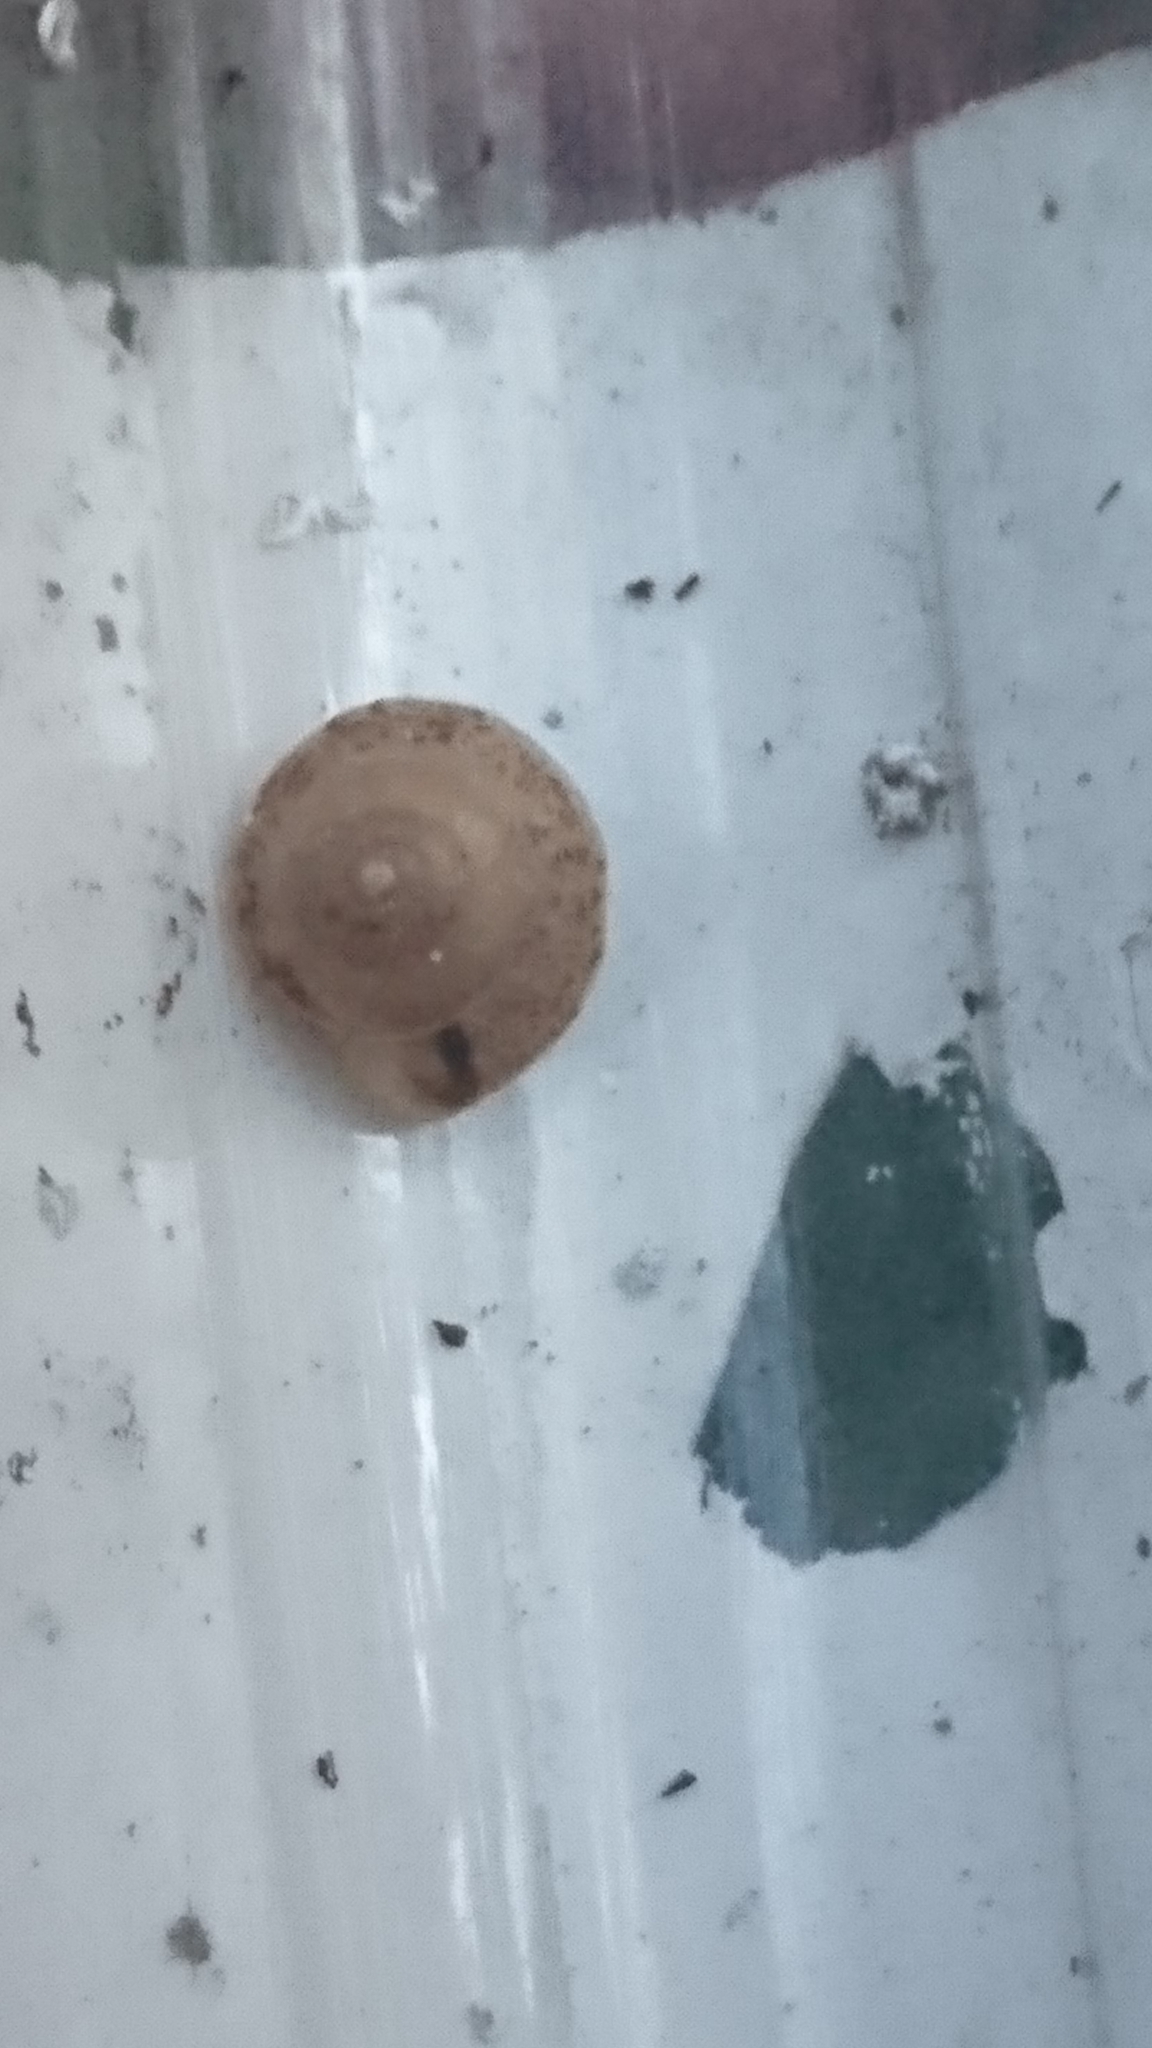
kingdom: Animalia
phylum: Mollusca
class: Gastropoda
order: Stylommatophora
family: Hygromiidae
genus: Hygromia
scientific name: Hygromia cinctella
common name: Girdled snail
